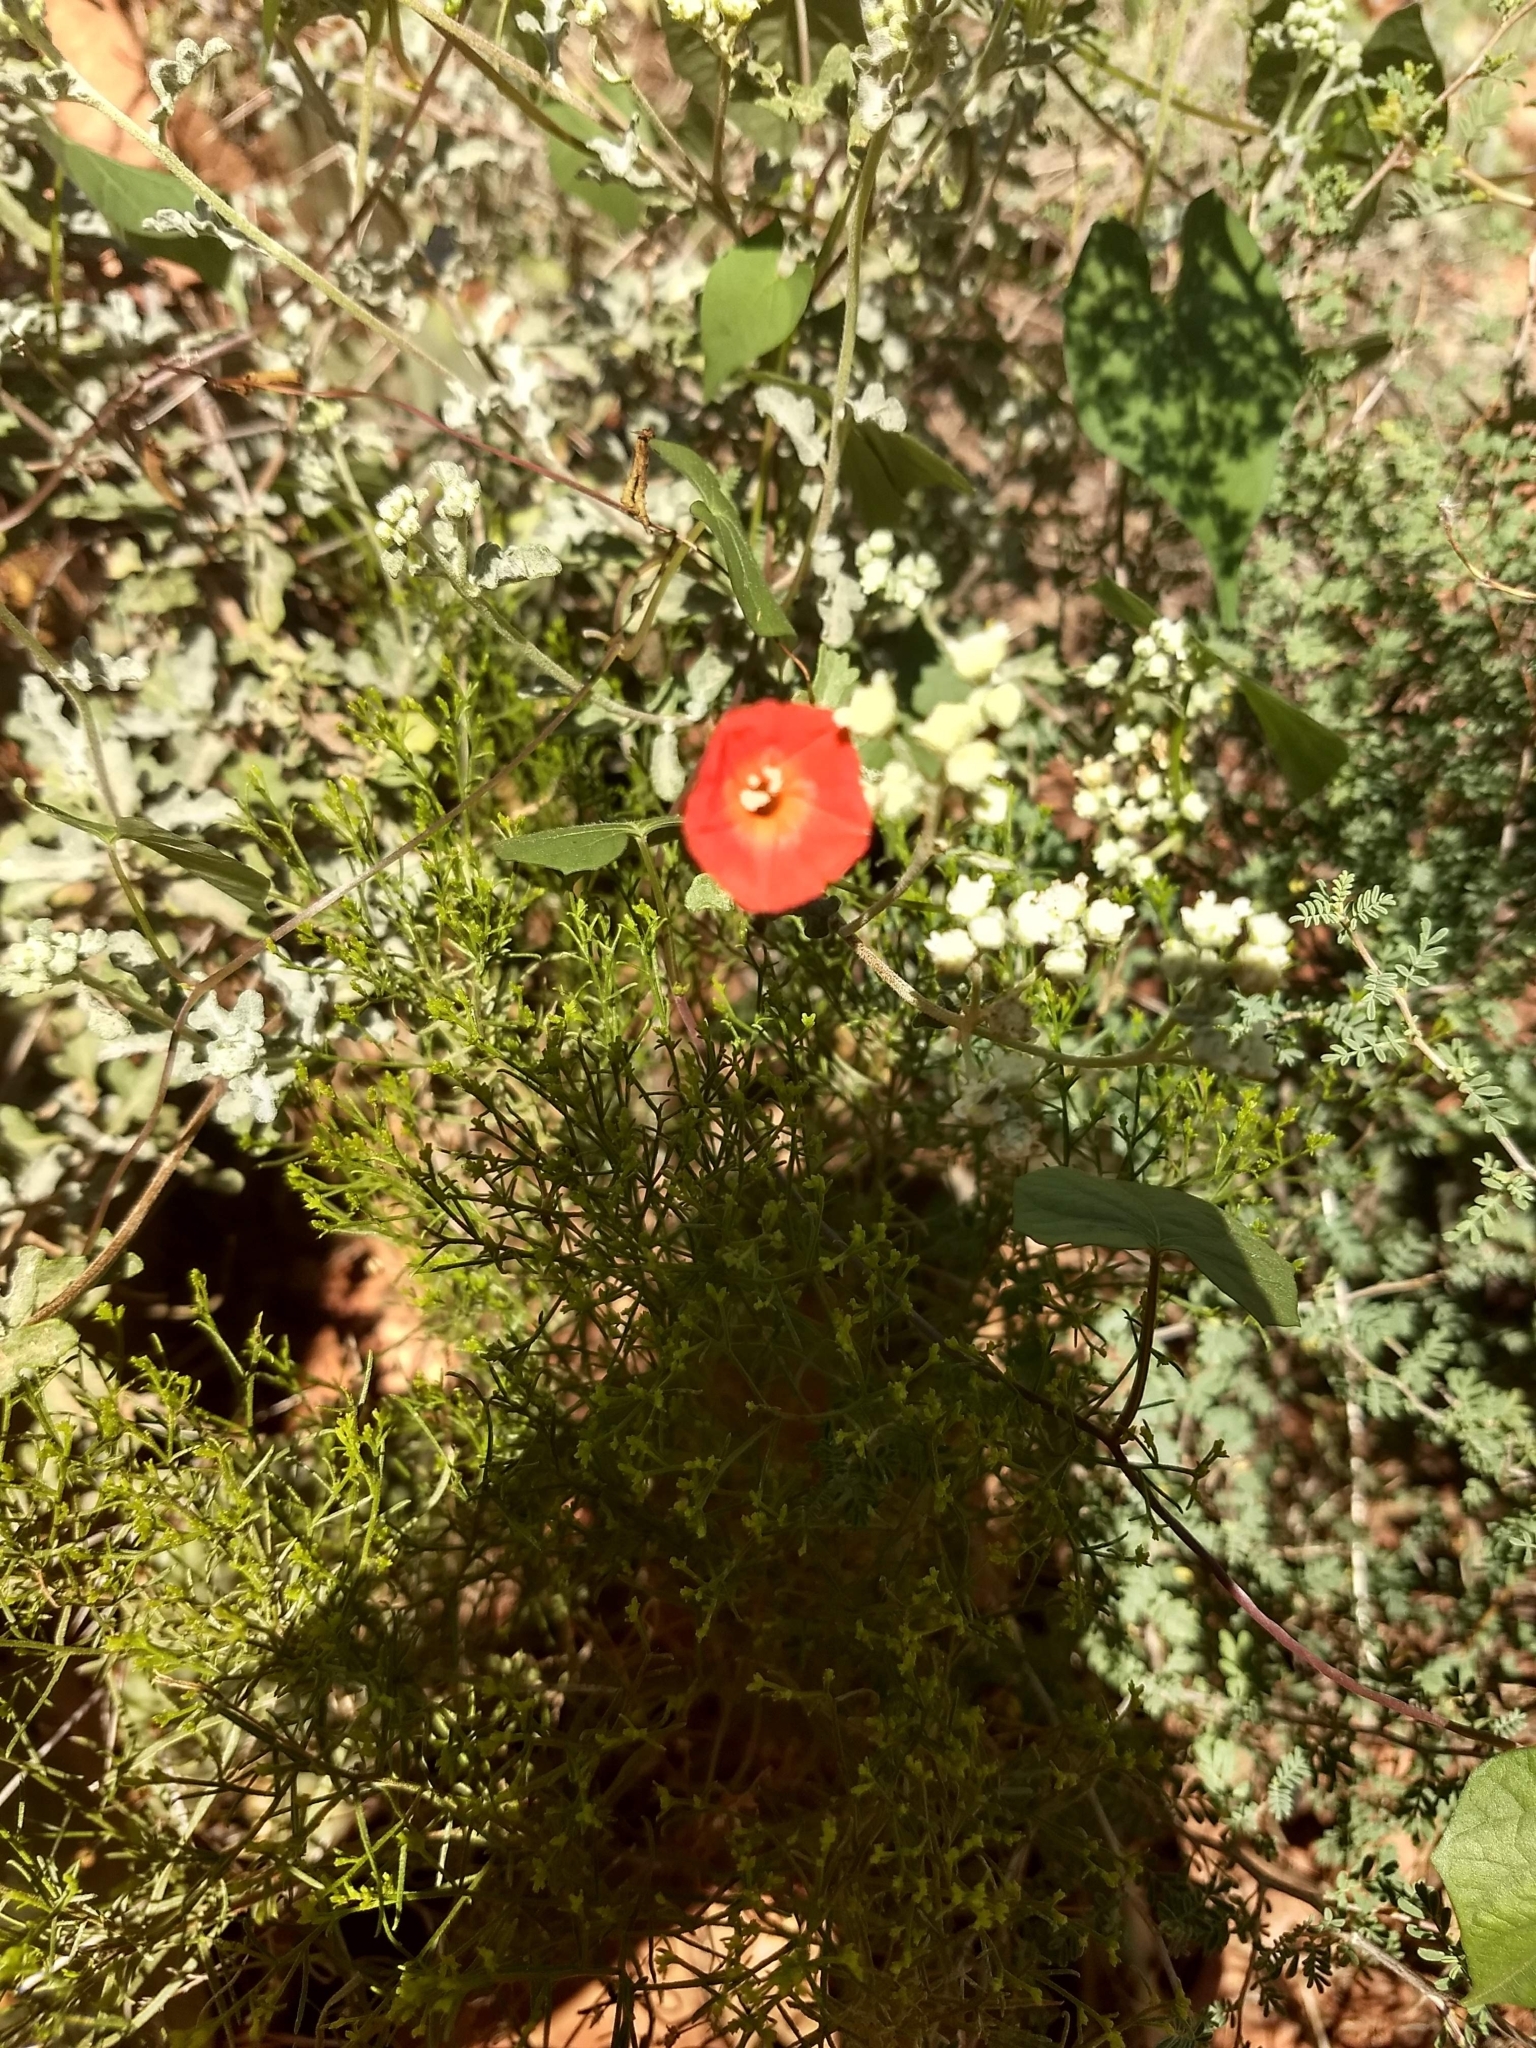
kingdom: Plantae
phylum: Tracheophyta
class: Magnoliopsida
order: Solanales
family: Convolvulaceae
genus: Ipomoea
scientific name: Ipomoea cristulata
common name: Trans-pecos morning-glory
